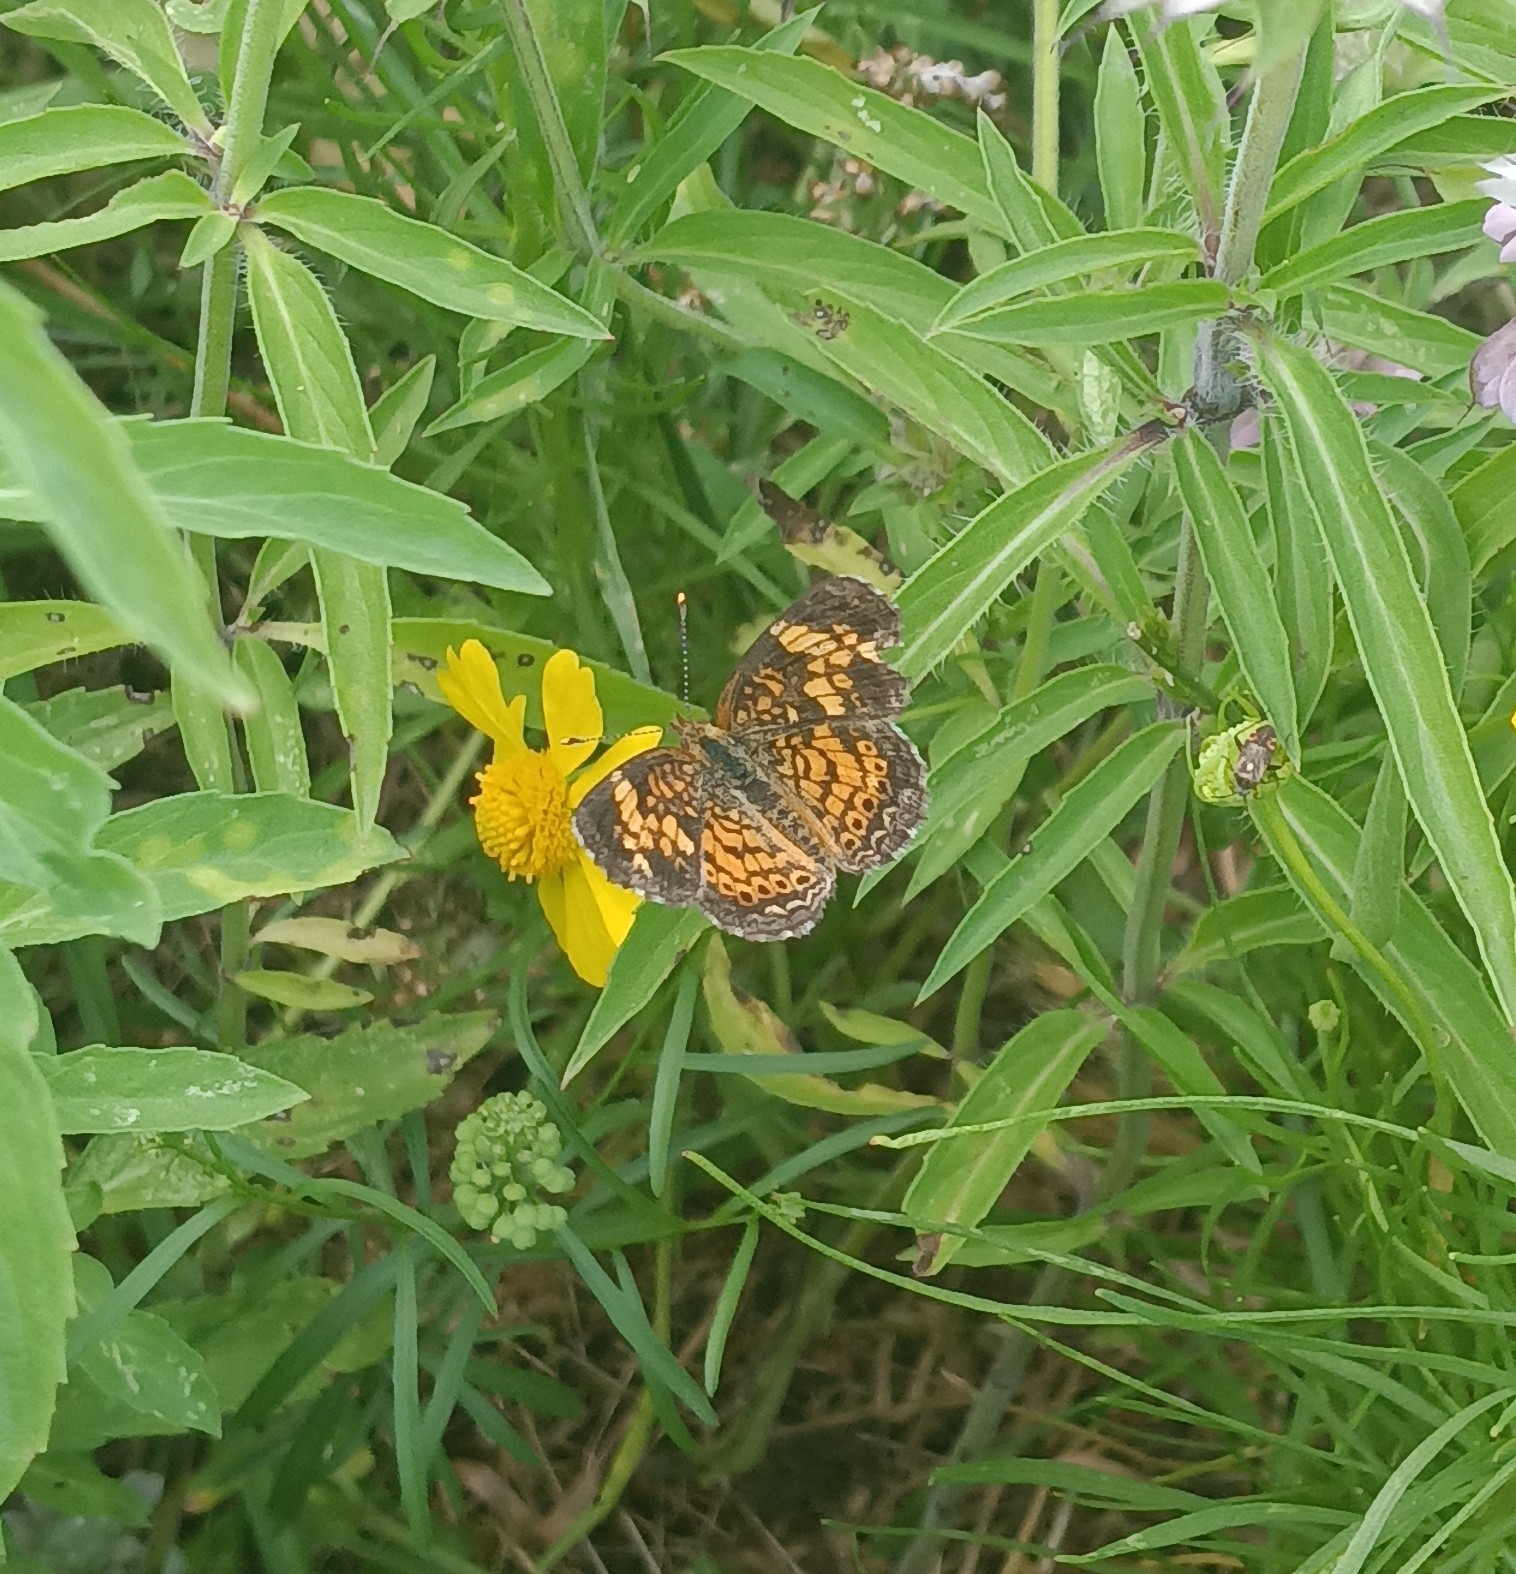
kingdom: Animalia
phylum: Arthropoda
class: Insecta
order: Lepidoptera
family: Nymphalidae
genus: Phyciodes
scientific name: Phyciodes tharos
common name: Pearl crescent
